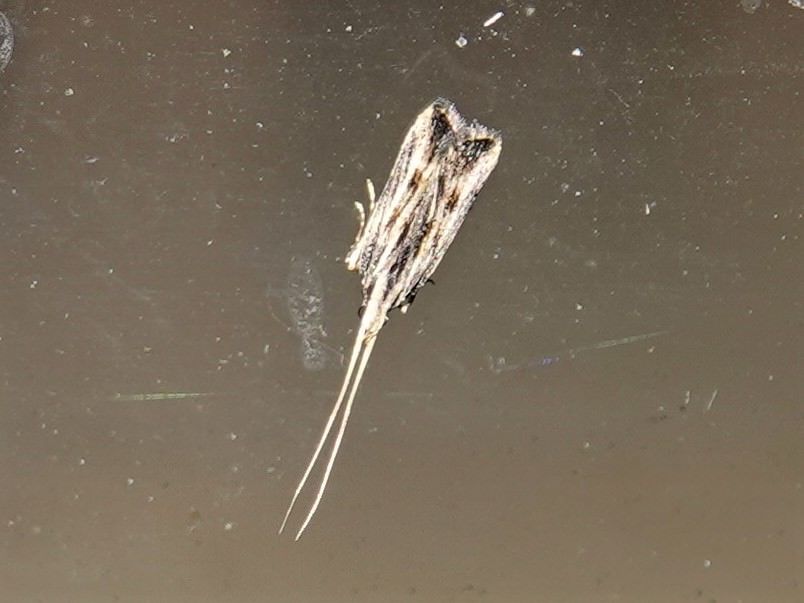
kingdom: Animalia
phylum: Arthropoda
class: Insecta
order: Lepidoptera
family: Lecithoceridae
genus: Sarisophora
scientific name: Sarisophora leucoscia
